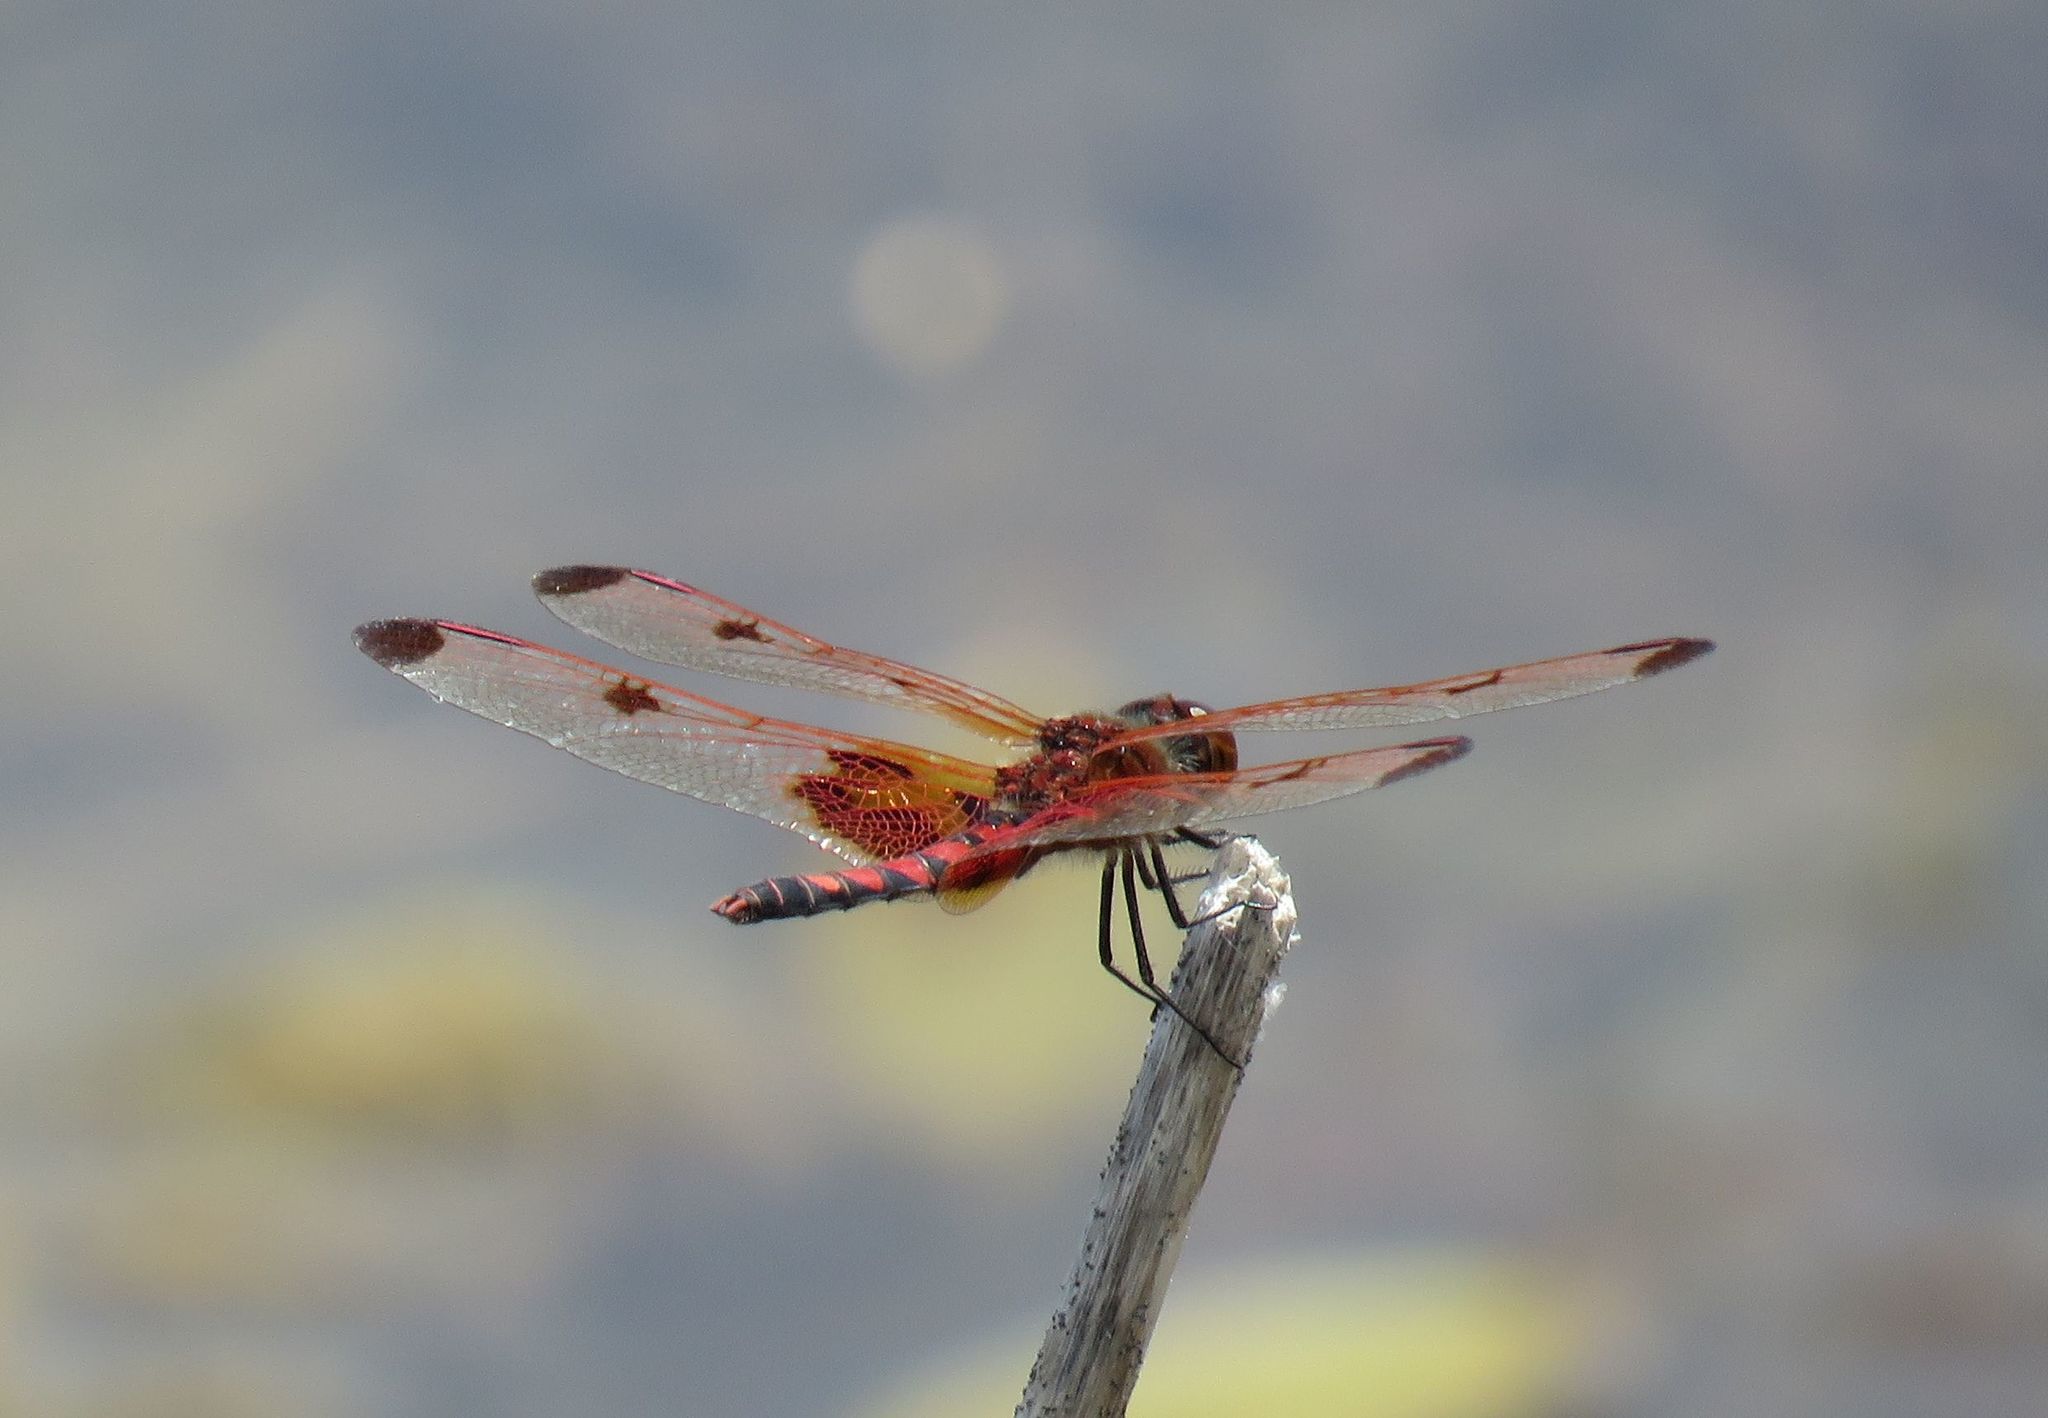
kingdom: Animalia
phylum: Arthropoda
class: Insecta
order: Odonata
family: Libellulidae
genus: Celithemis
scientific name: Celithemis elisa
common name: Calico pennant
